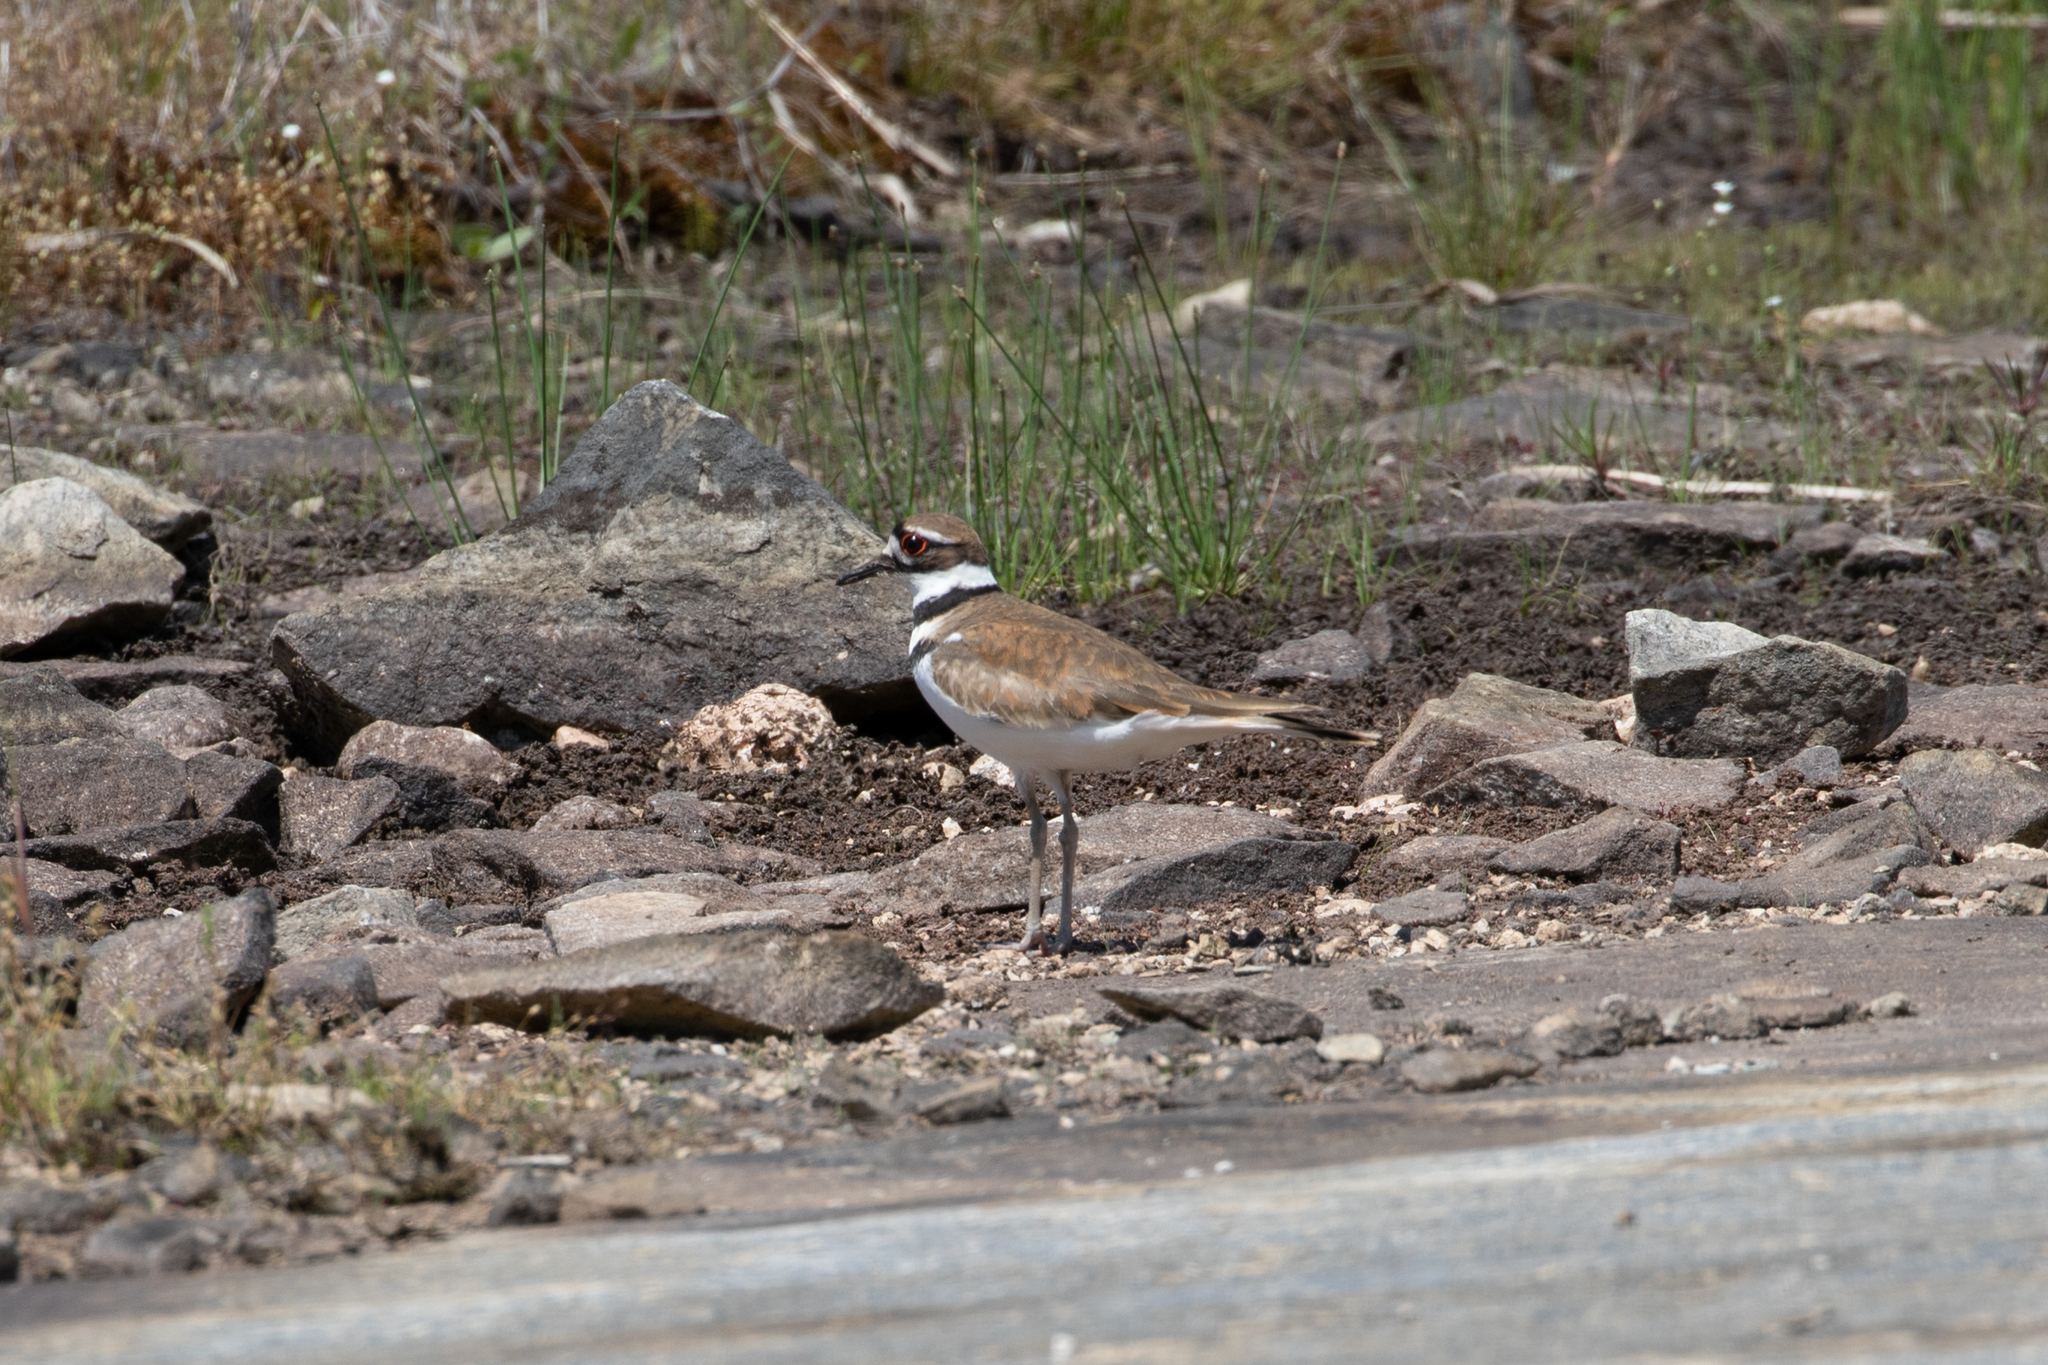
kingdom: Animalia
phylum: Chordata
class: Aves
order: Charadriiformes
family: Charadriidae
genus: Charadrius
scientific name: Charadrius vociferus
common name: Killdeer
